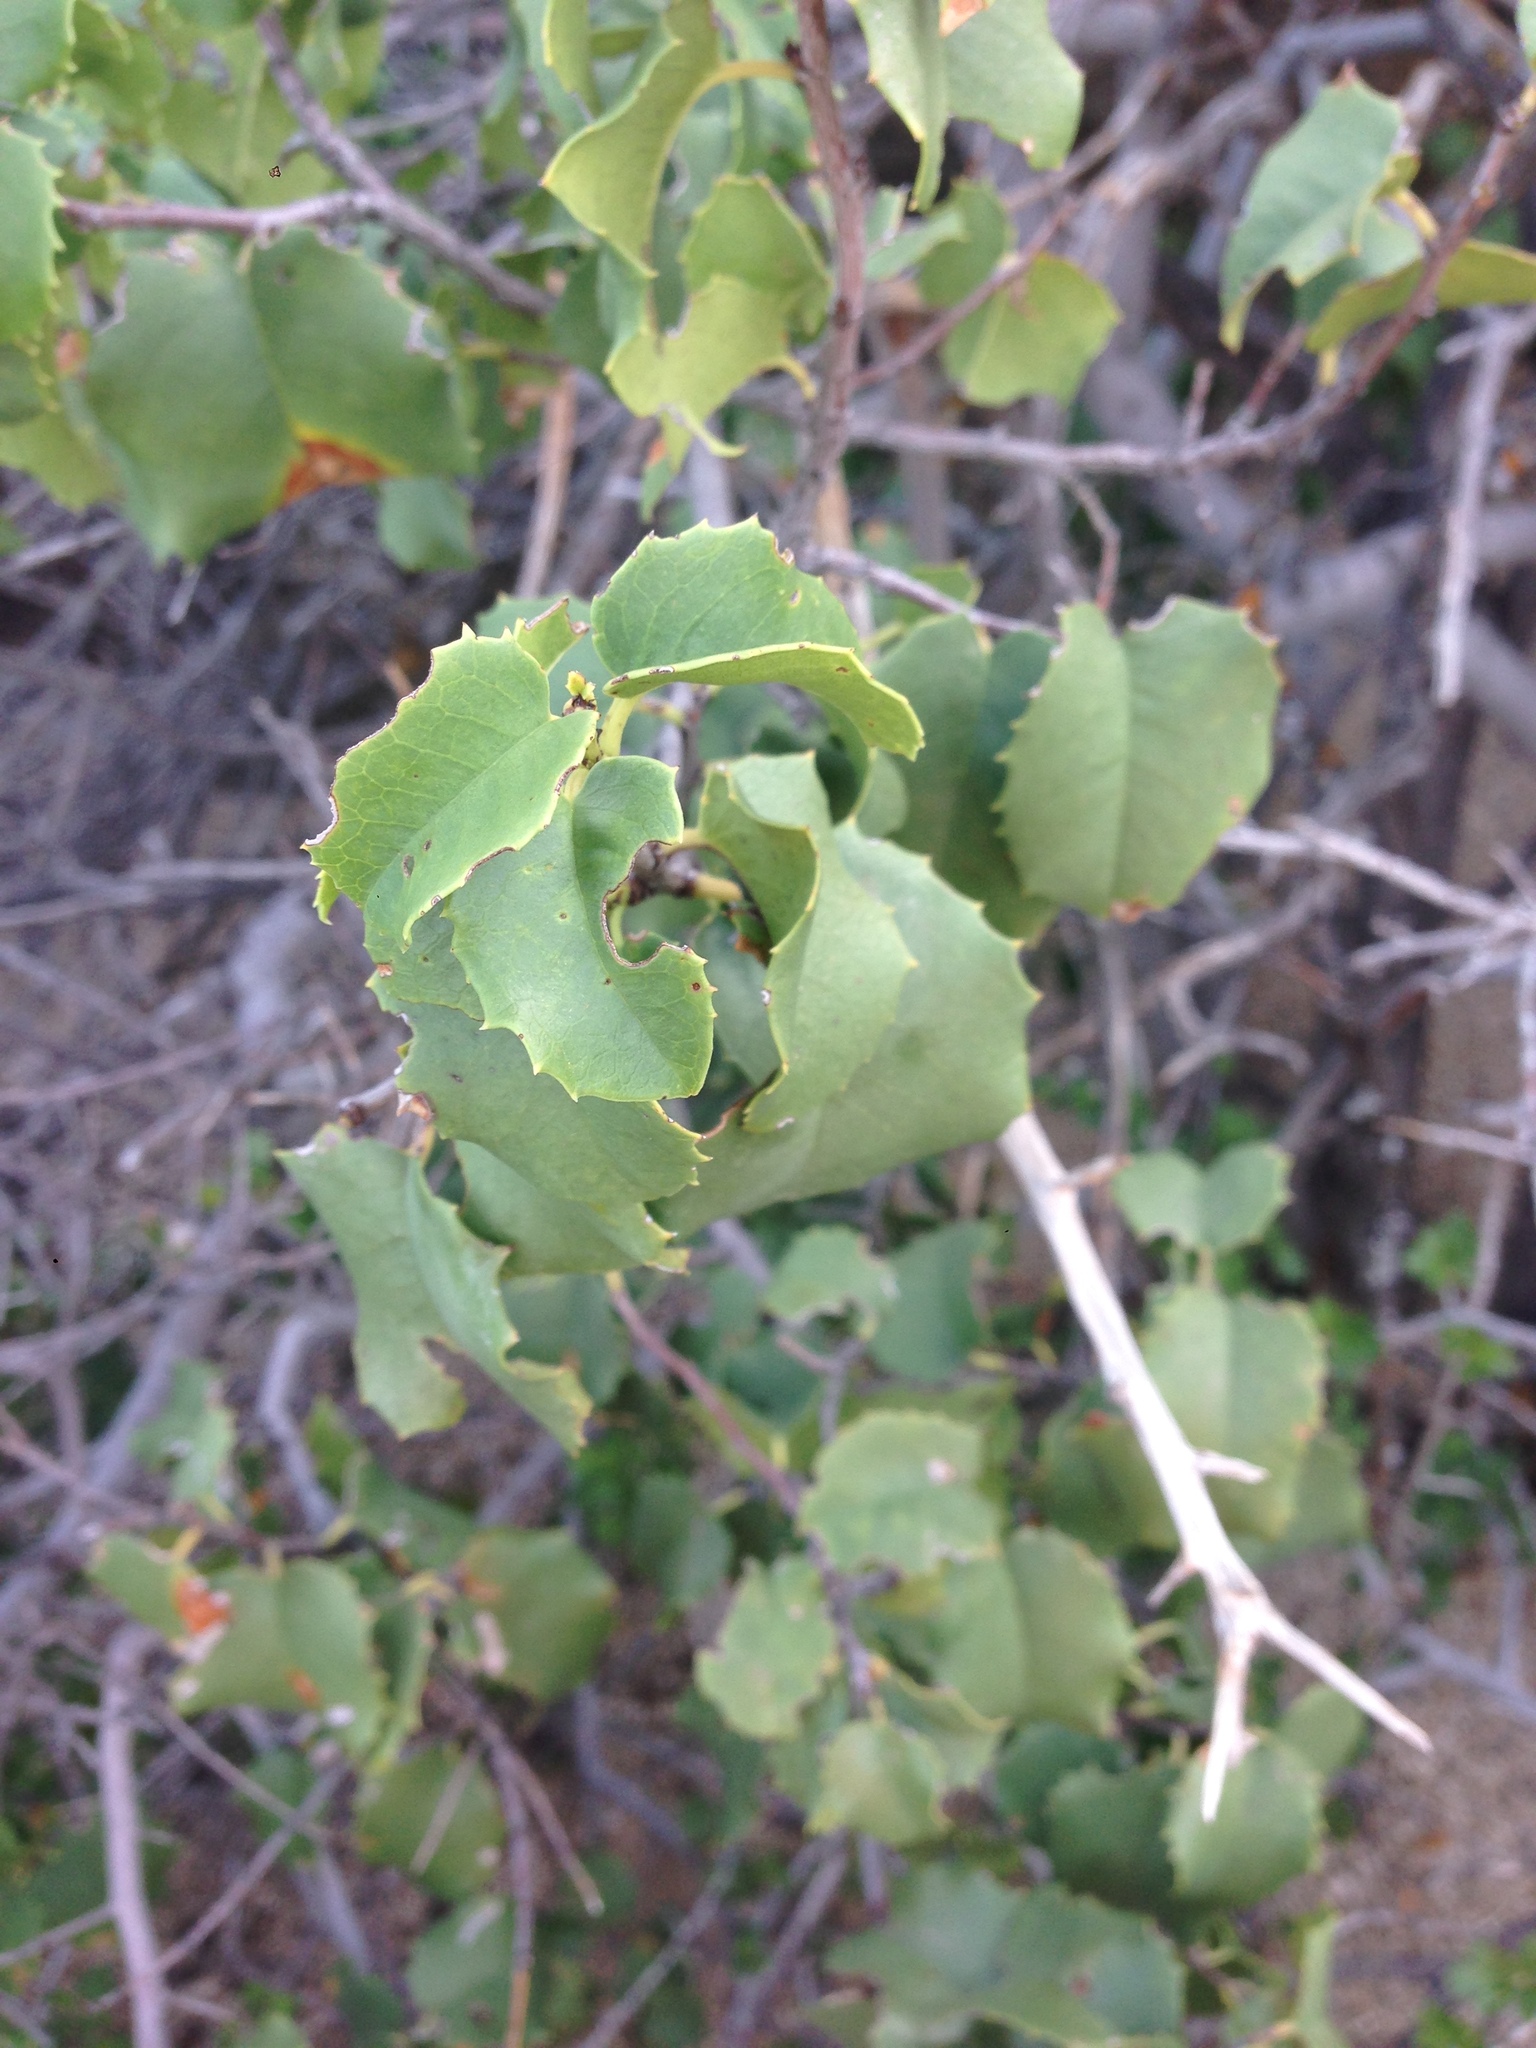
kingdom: Plantae
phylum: Tracheophyta
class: Magnoliopsida
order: Rosales
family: Rosaceae
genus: Prunus
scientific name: Prunus ilicifolia
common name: Hollyleaf cherry
